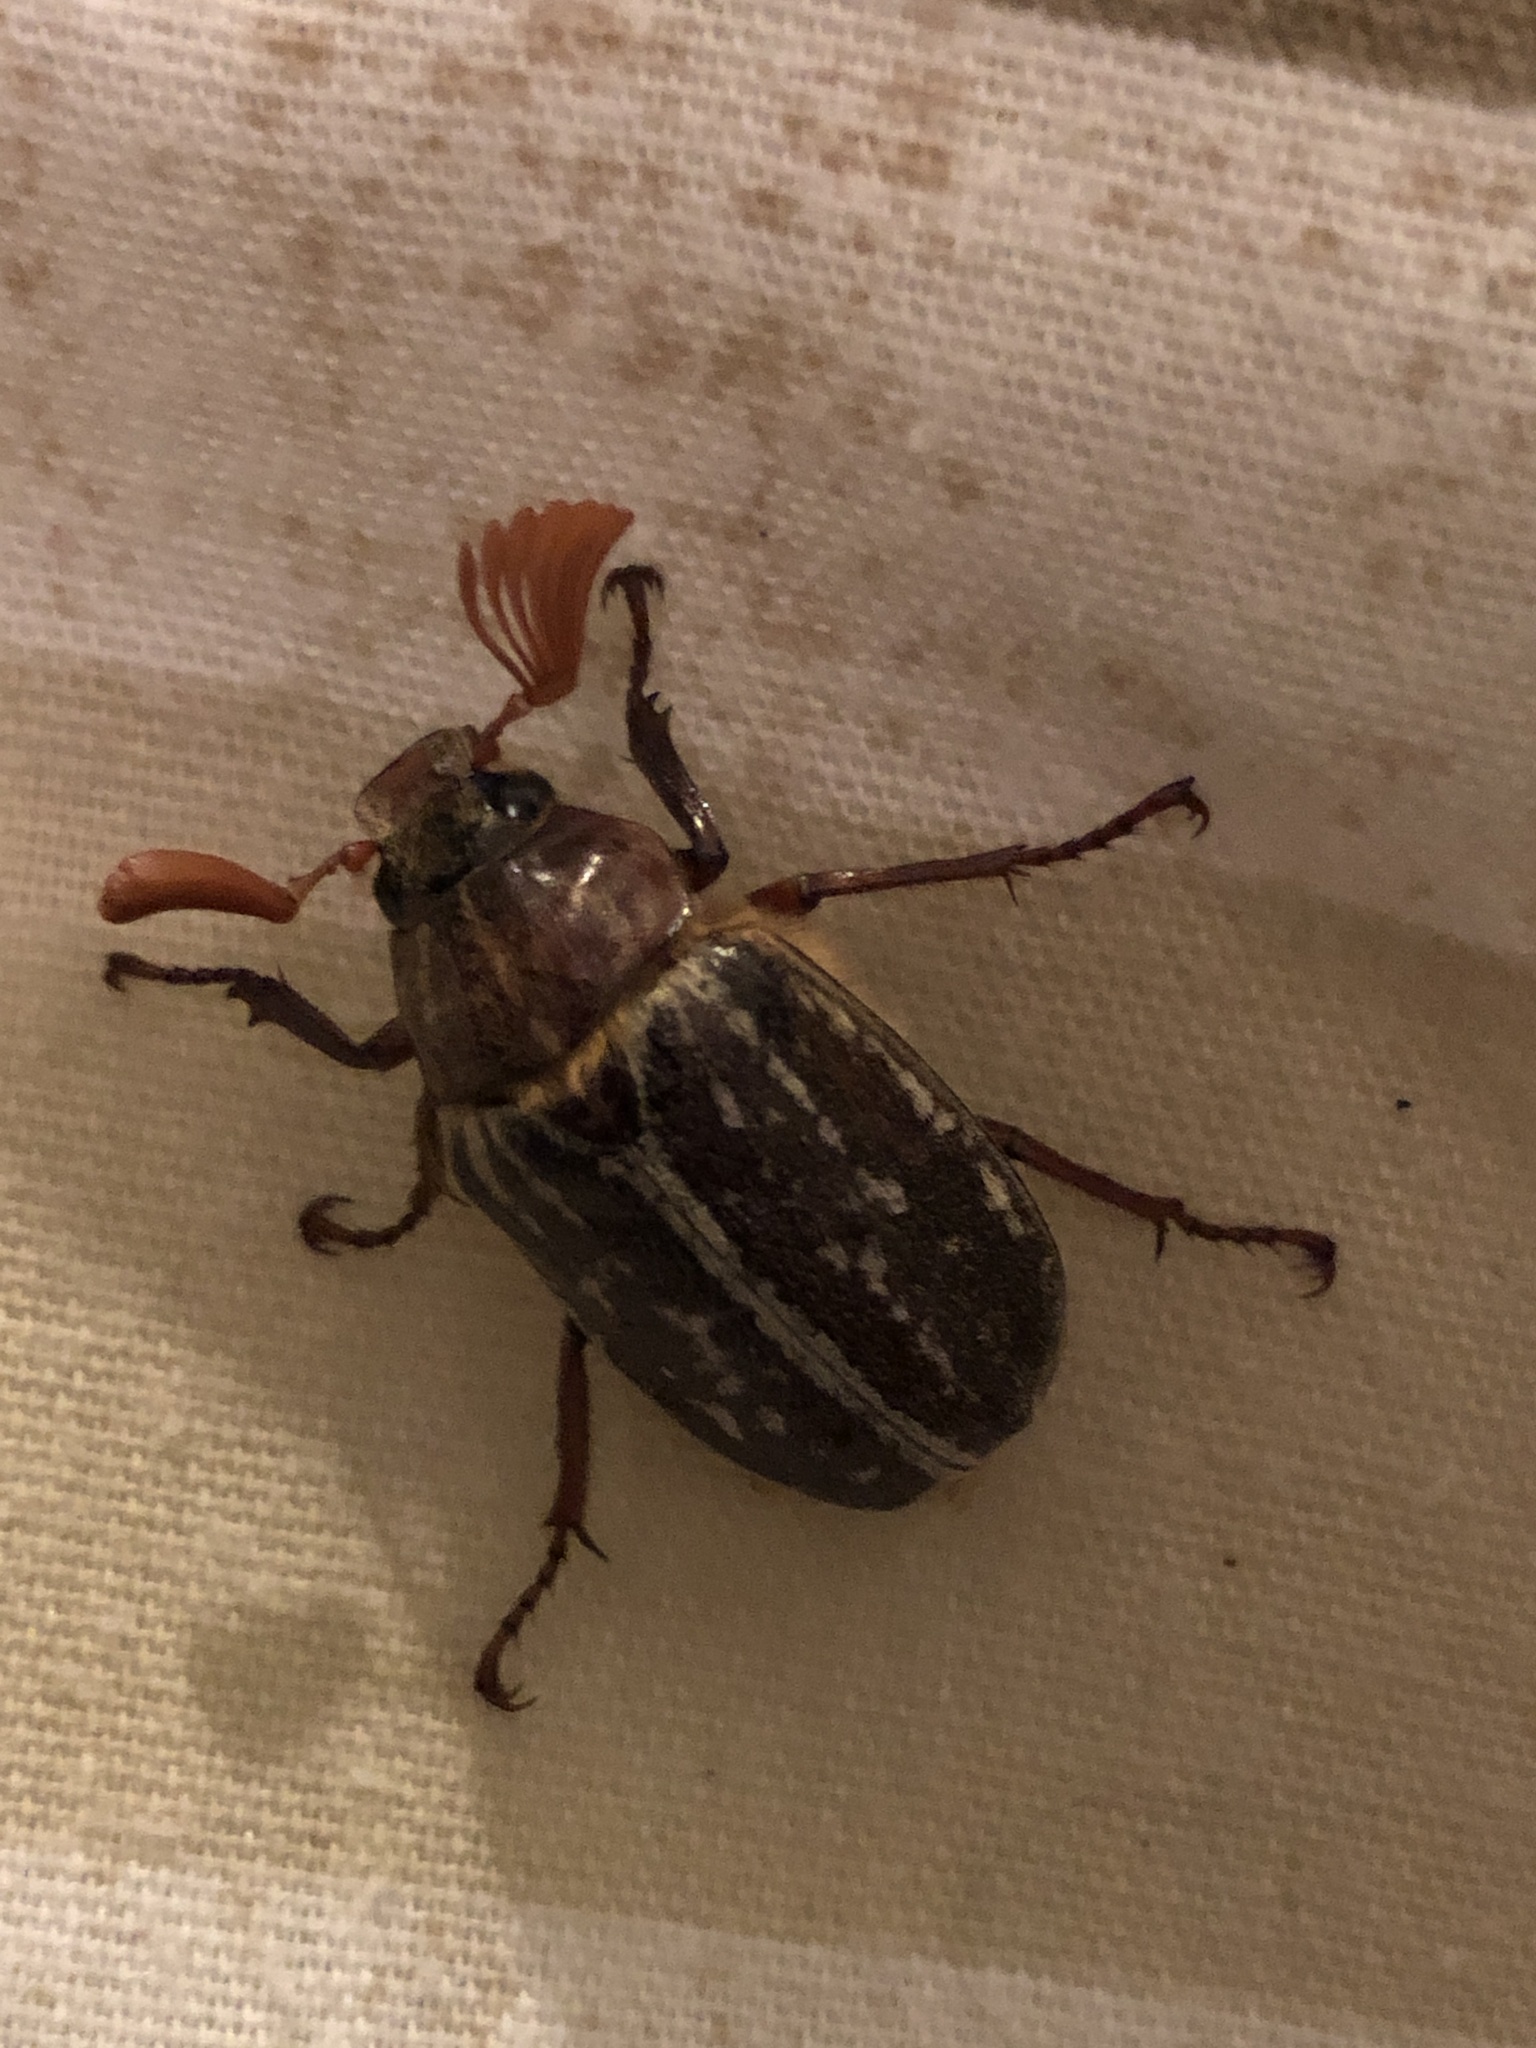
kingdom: Animalia
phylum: Arthropoda
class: Insecta
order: Coleoptera
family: Scarabaeidae
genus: Polyphylla
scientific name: Polyphylla variolosa
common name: Variegated june beetle
